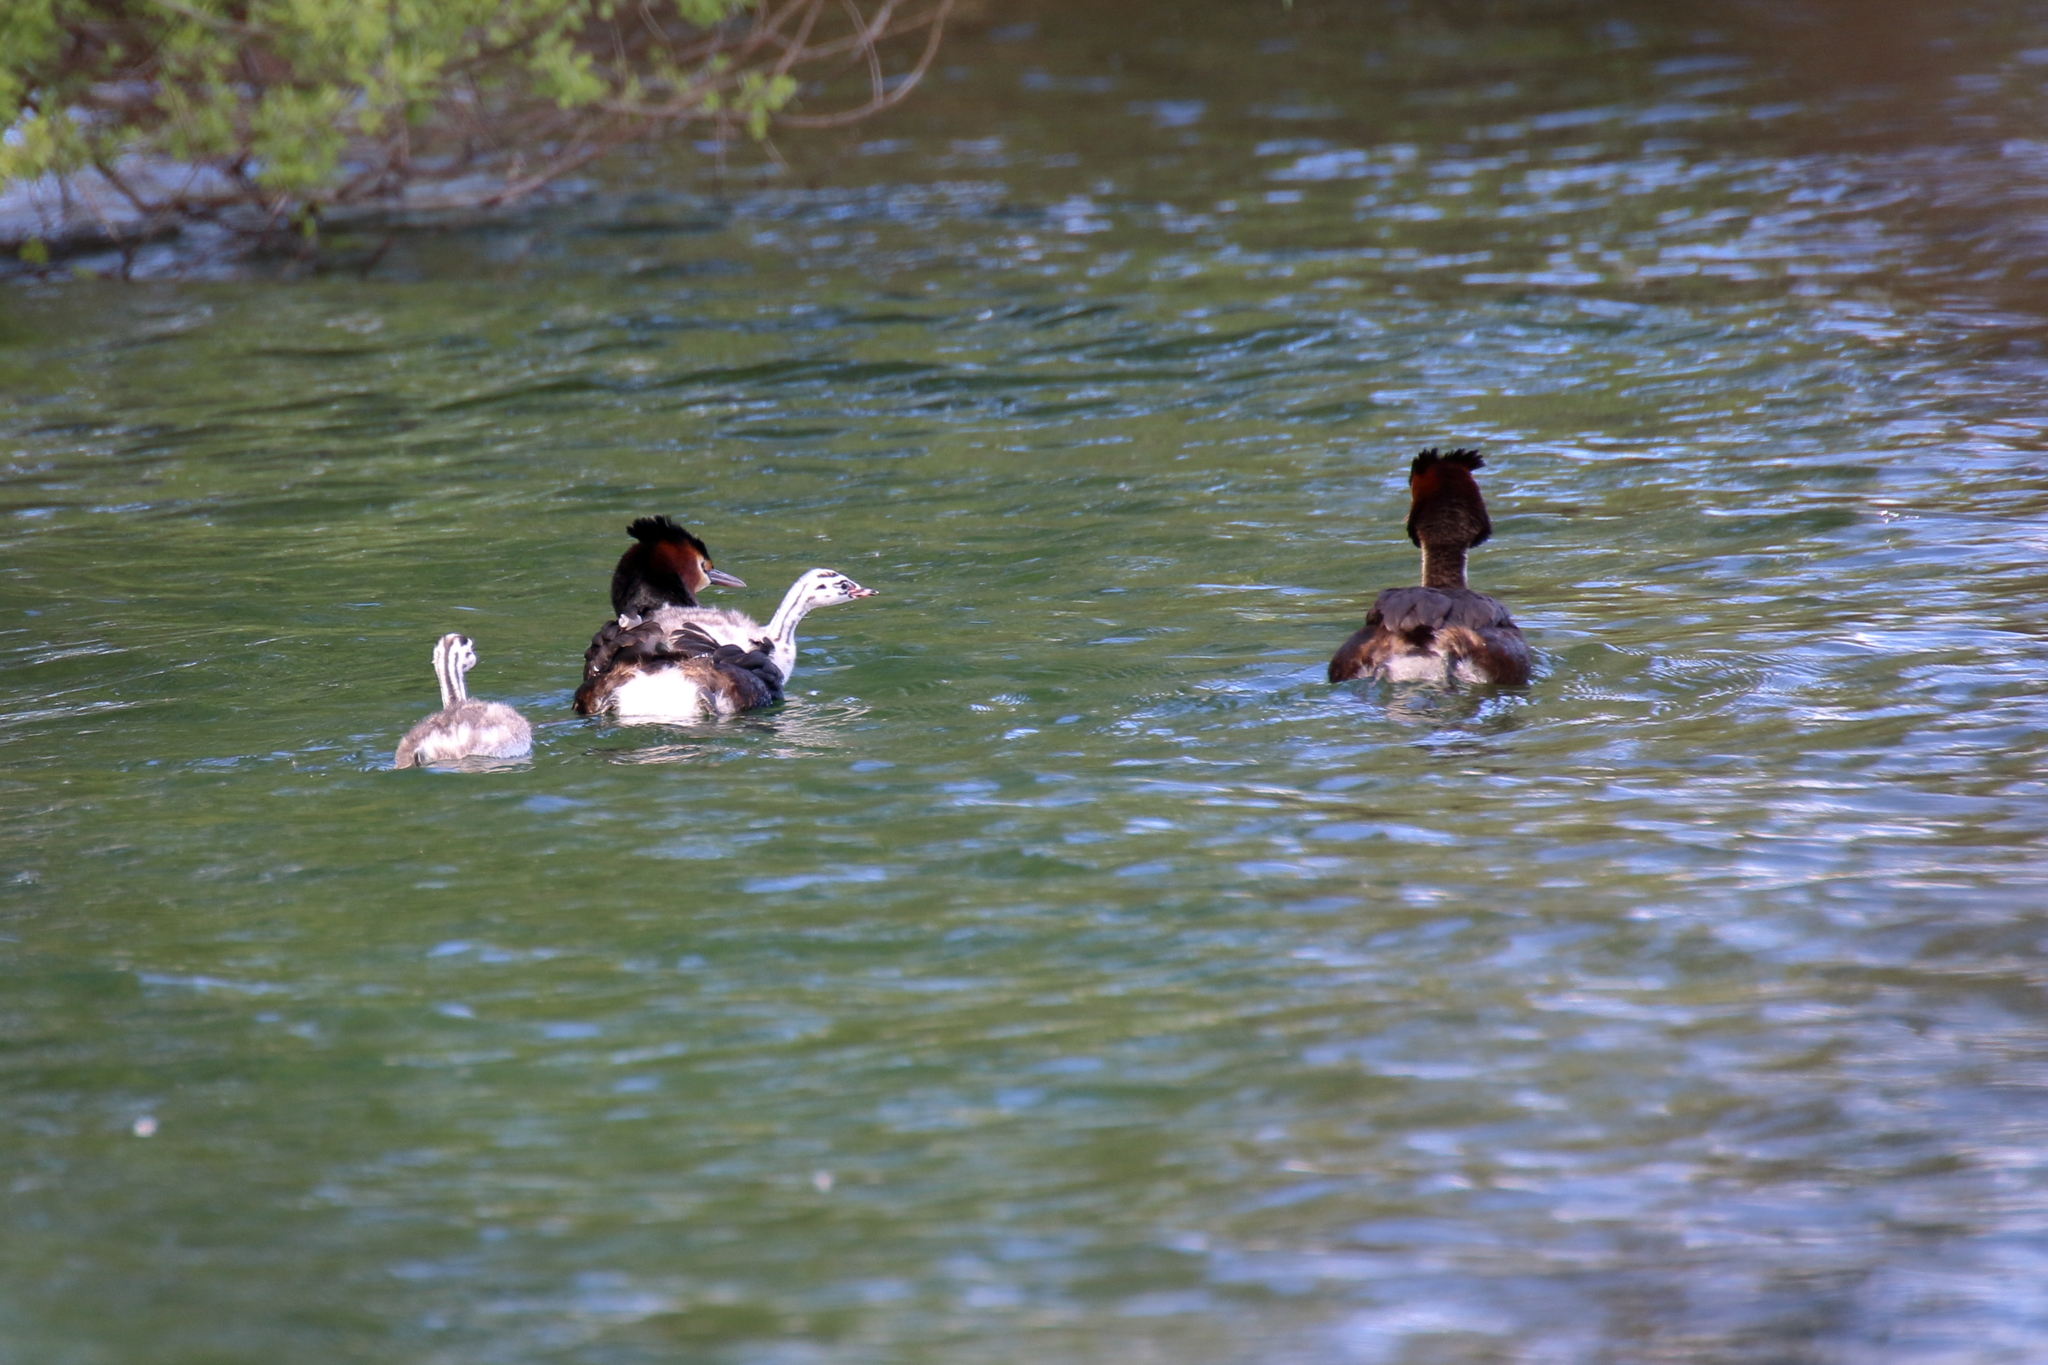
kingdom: Animalia
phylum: Chordata
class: Aves
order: Podicipediformes
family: Podicipedidae
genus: Podiceps
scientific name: Podiceps cristatus
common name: Great crested grebe
